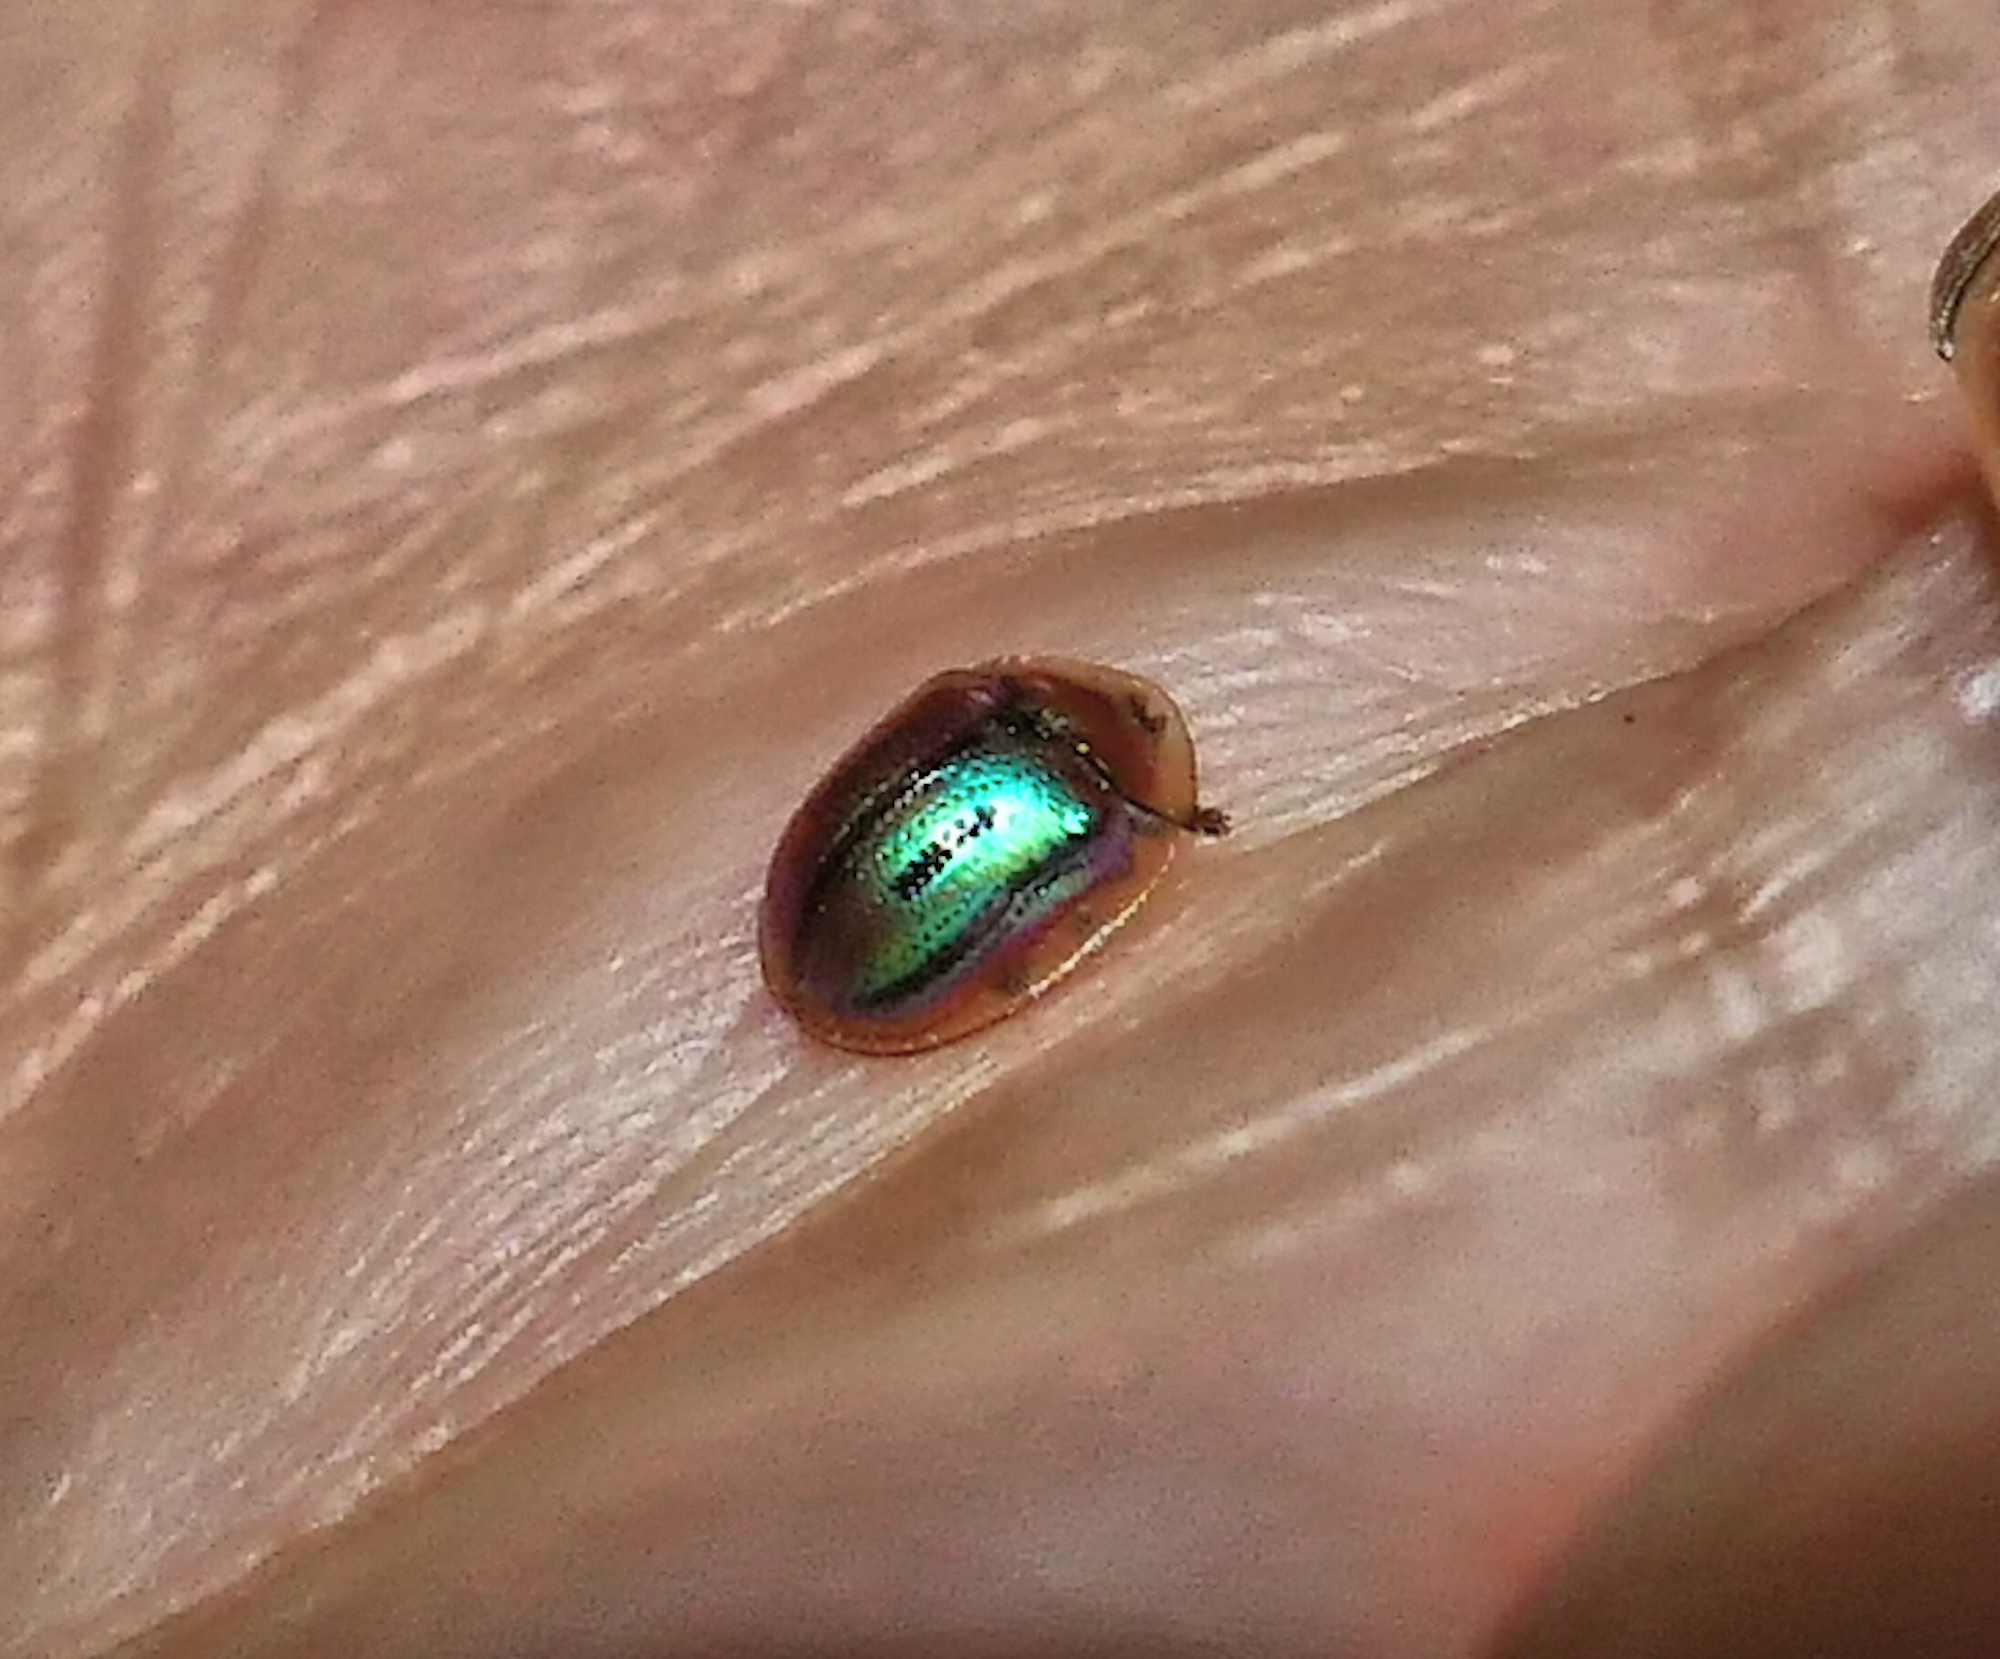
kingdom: Animalia
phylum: Arthropoda
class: Insecta
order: Coleoptera
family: Chrysomelidae
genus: Jonthonota
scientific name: Jonthonota mexicana
